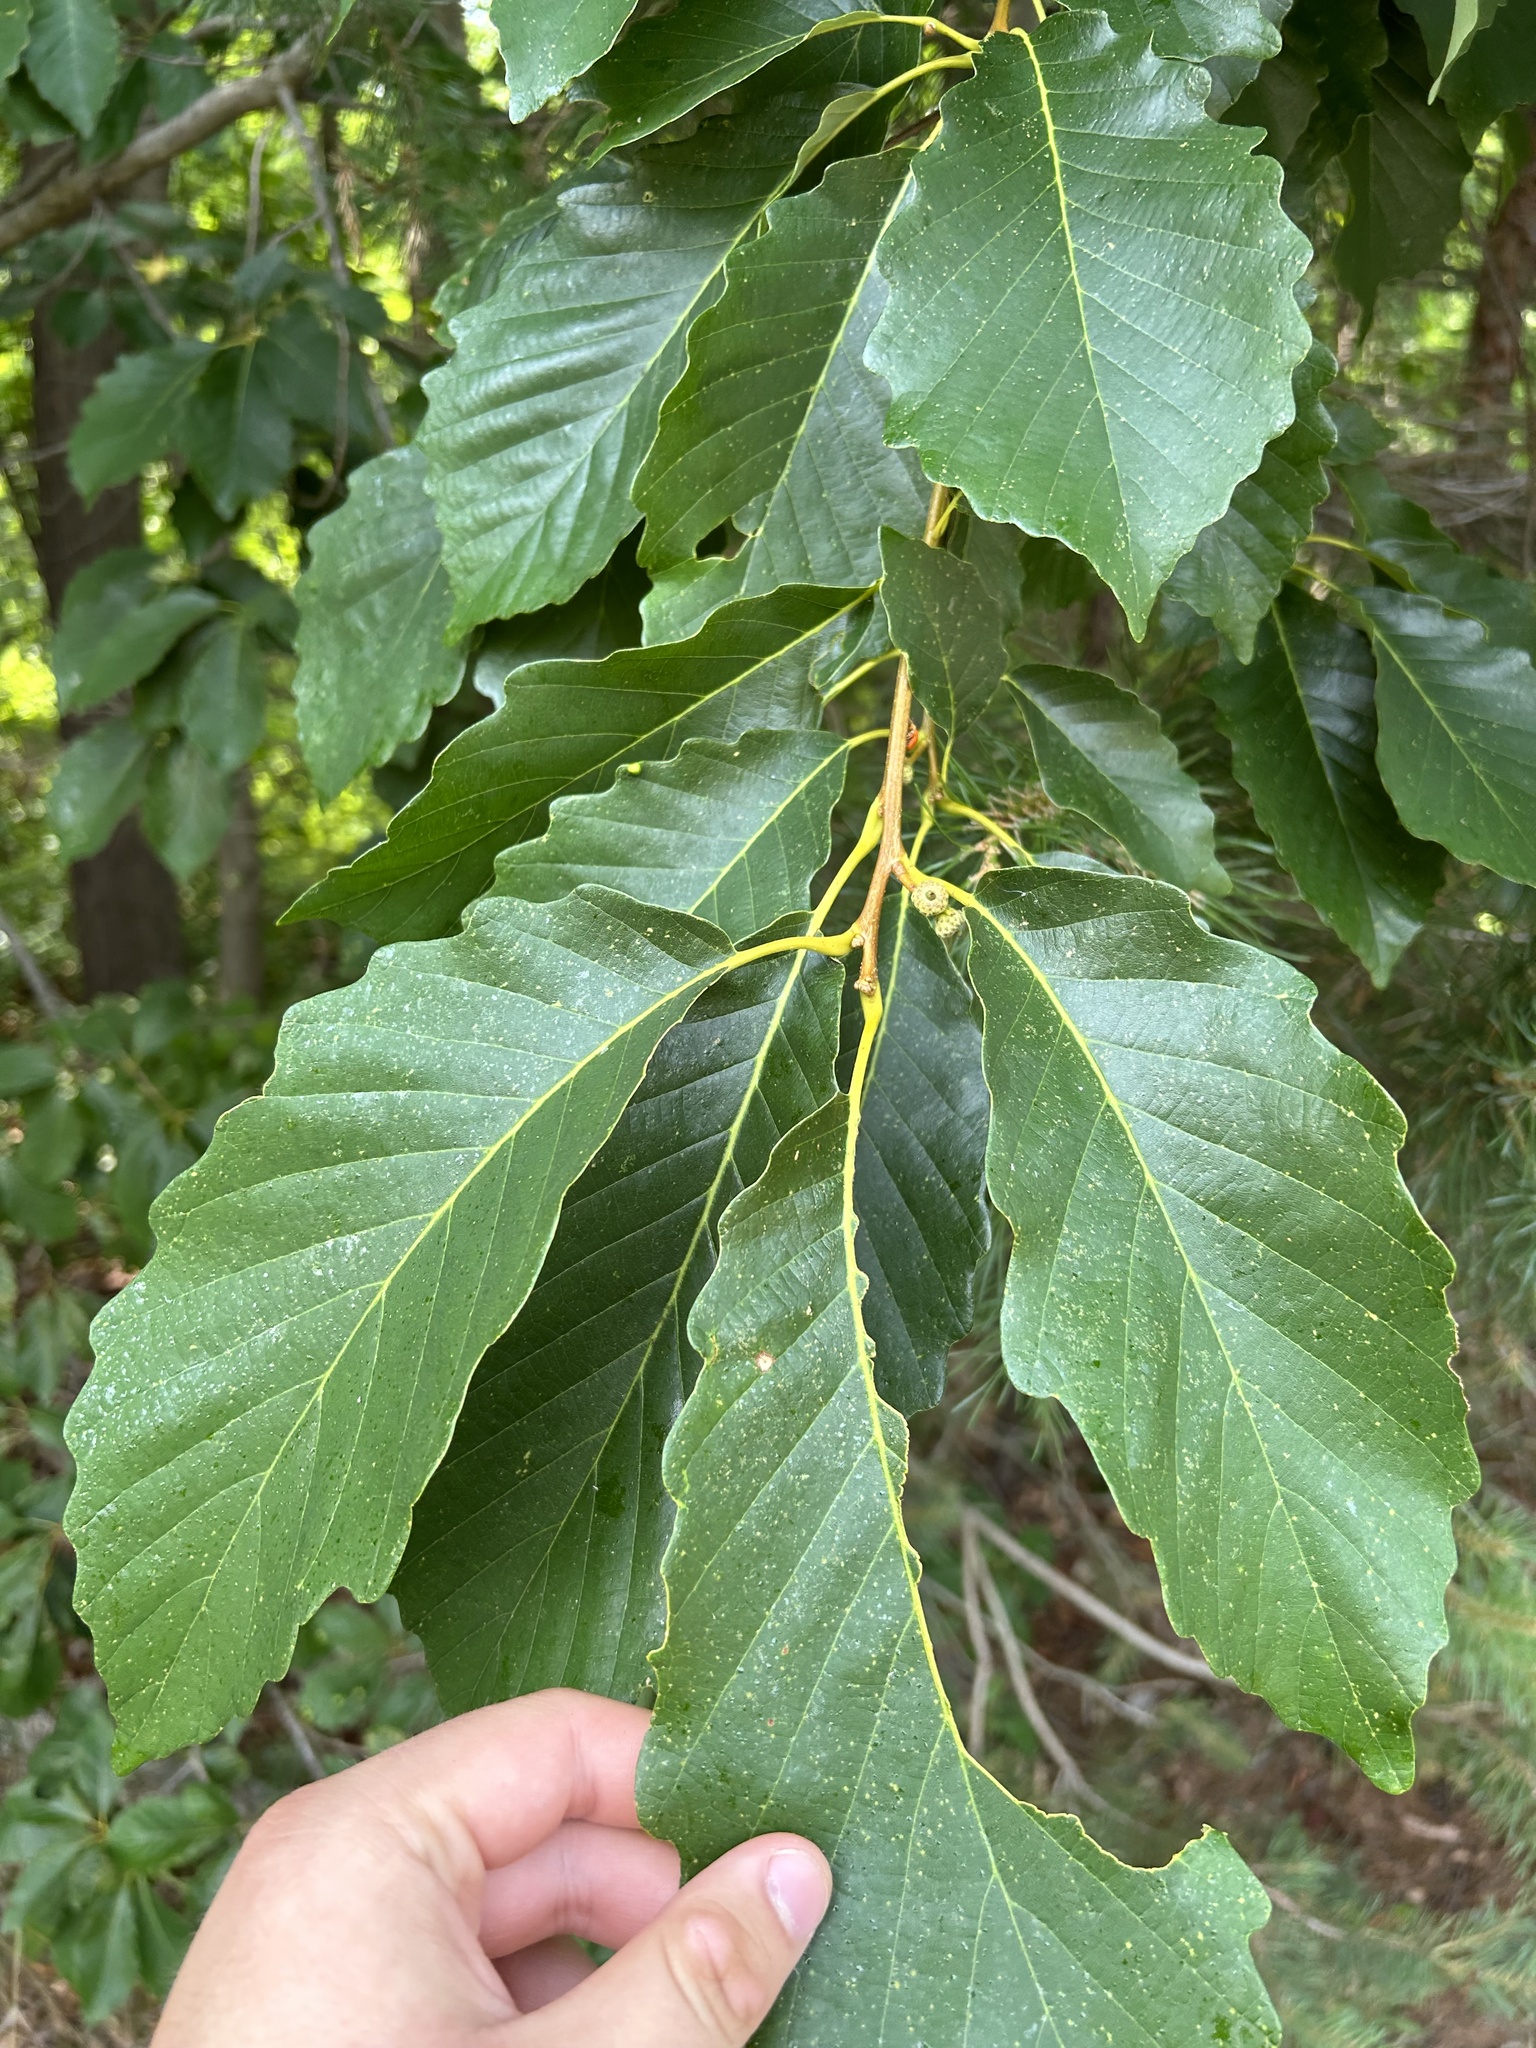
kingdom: Plantae
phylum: Tracheophyta
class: Magnoliopsida
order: Fagales
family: Fagaceae
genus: Quercus
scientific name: Quercus montana
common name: Chestnut oak
